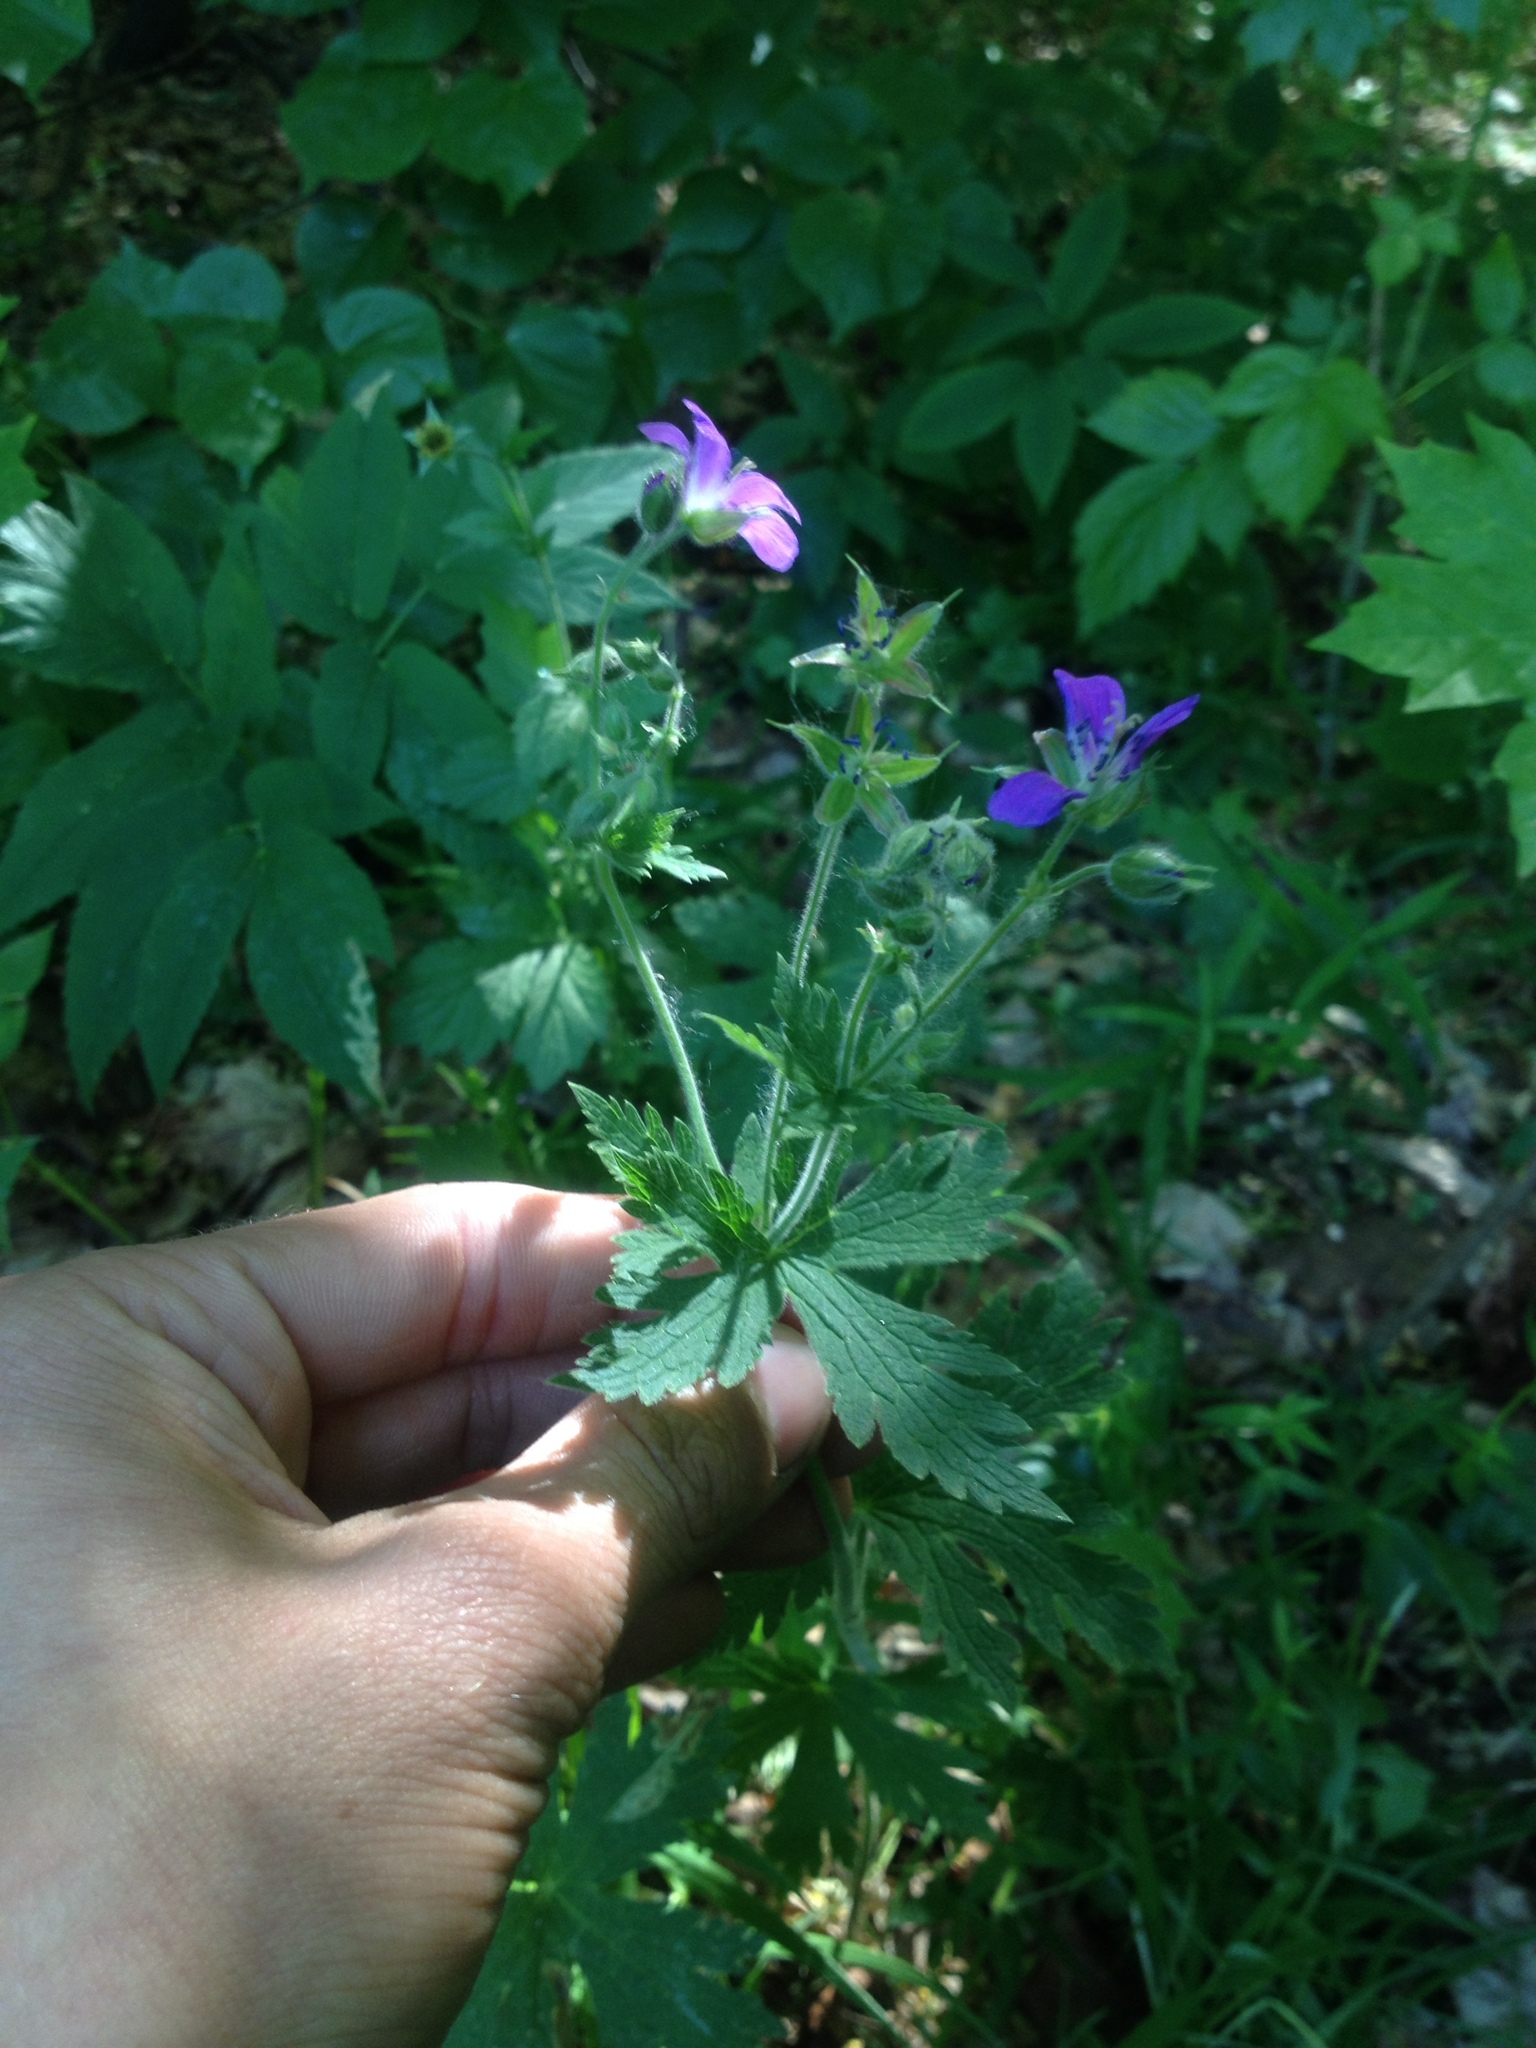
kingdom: Plantae
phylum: Tracheophyta
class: Magnoliopsida
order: Geraniales
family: Geraniaceae
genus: Geranium
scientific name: Geranium sylvaticum
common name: Wood crane's-bill
